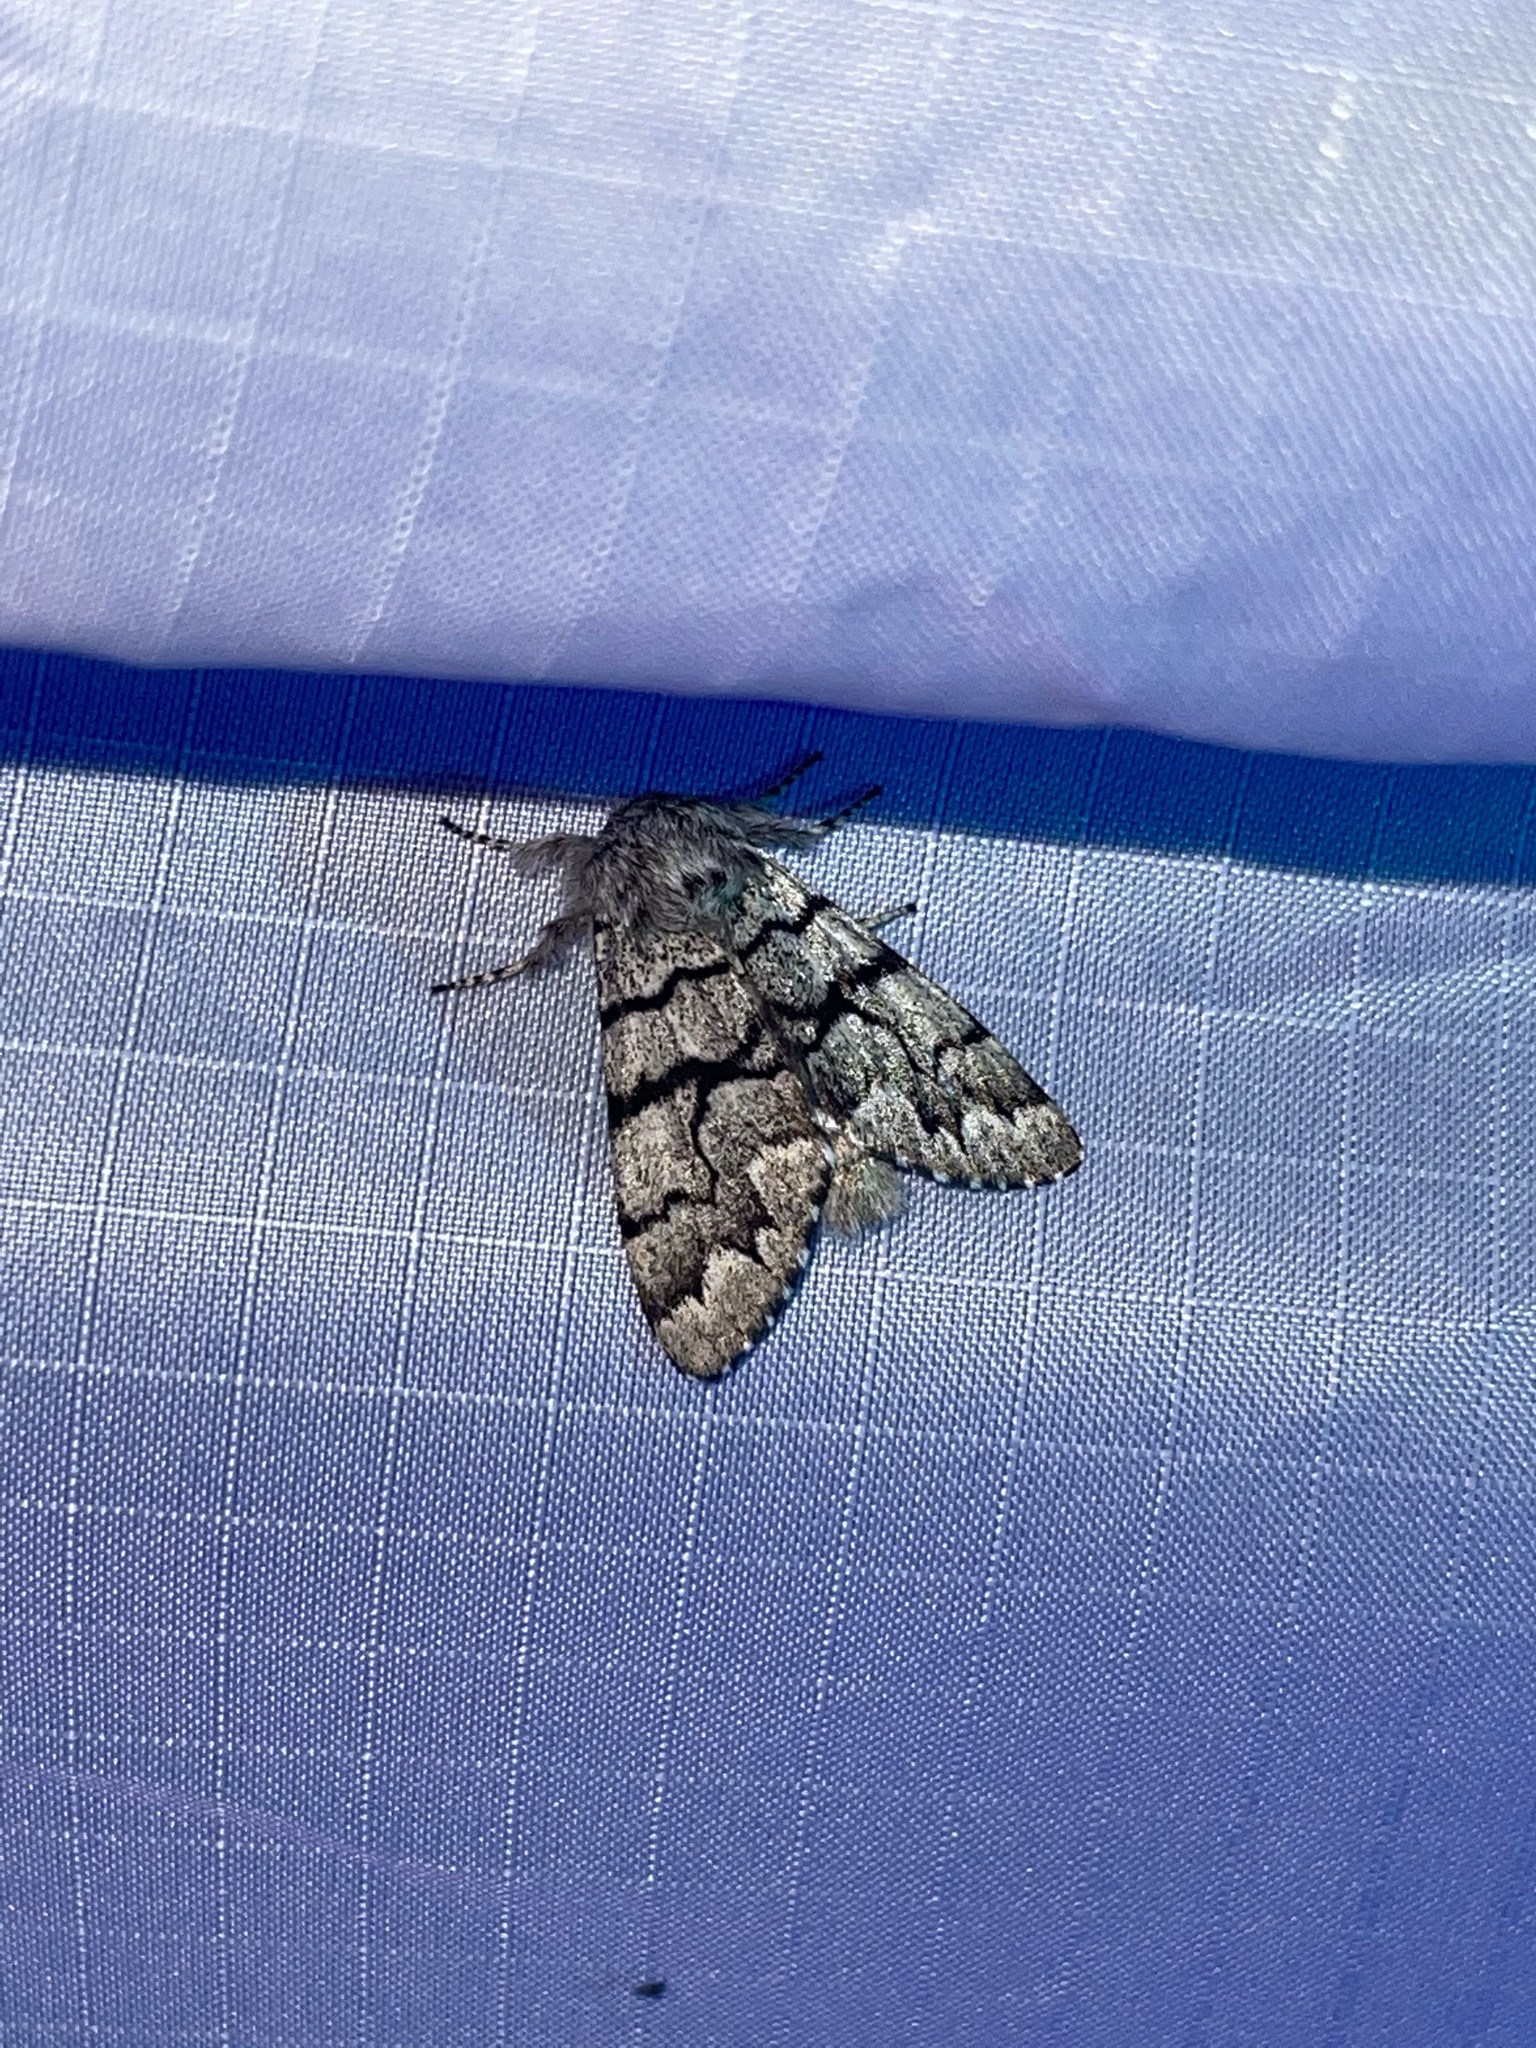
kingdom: Animalia
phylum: Arthropoda
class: Insecta
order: Lepidoptera
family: Noctuidae
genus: Panthea
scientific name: Panthea furcilla
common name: Eastern panthea moth
